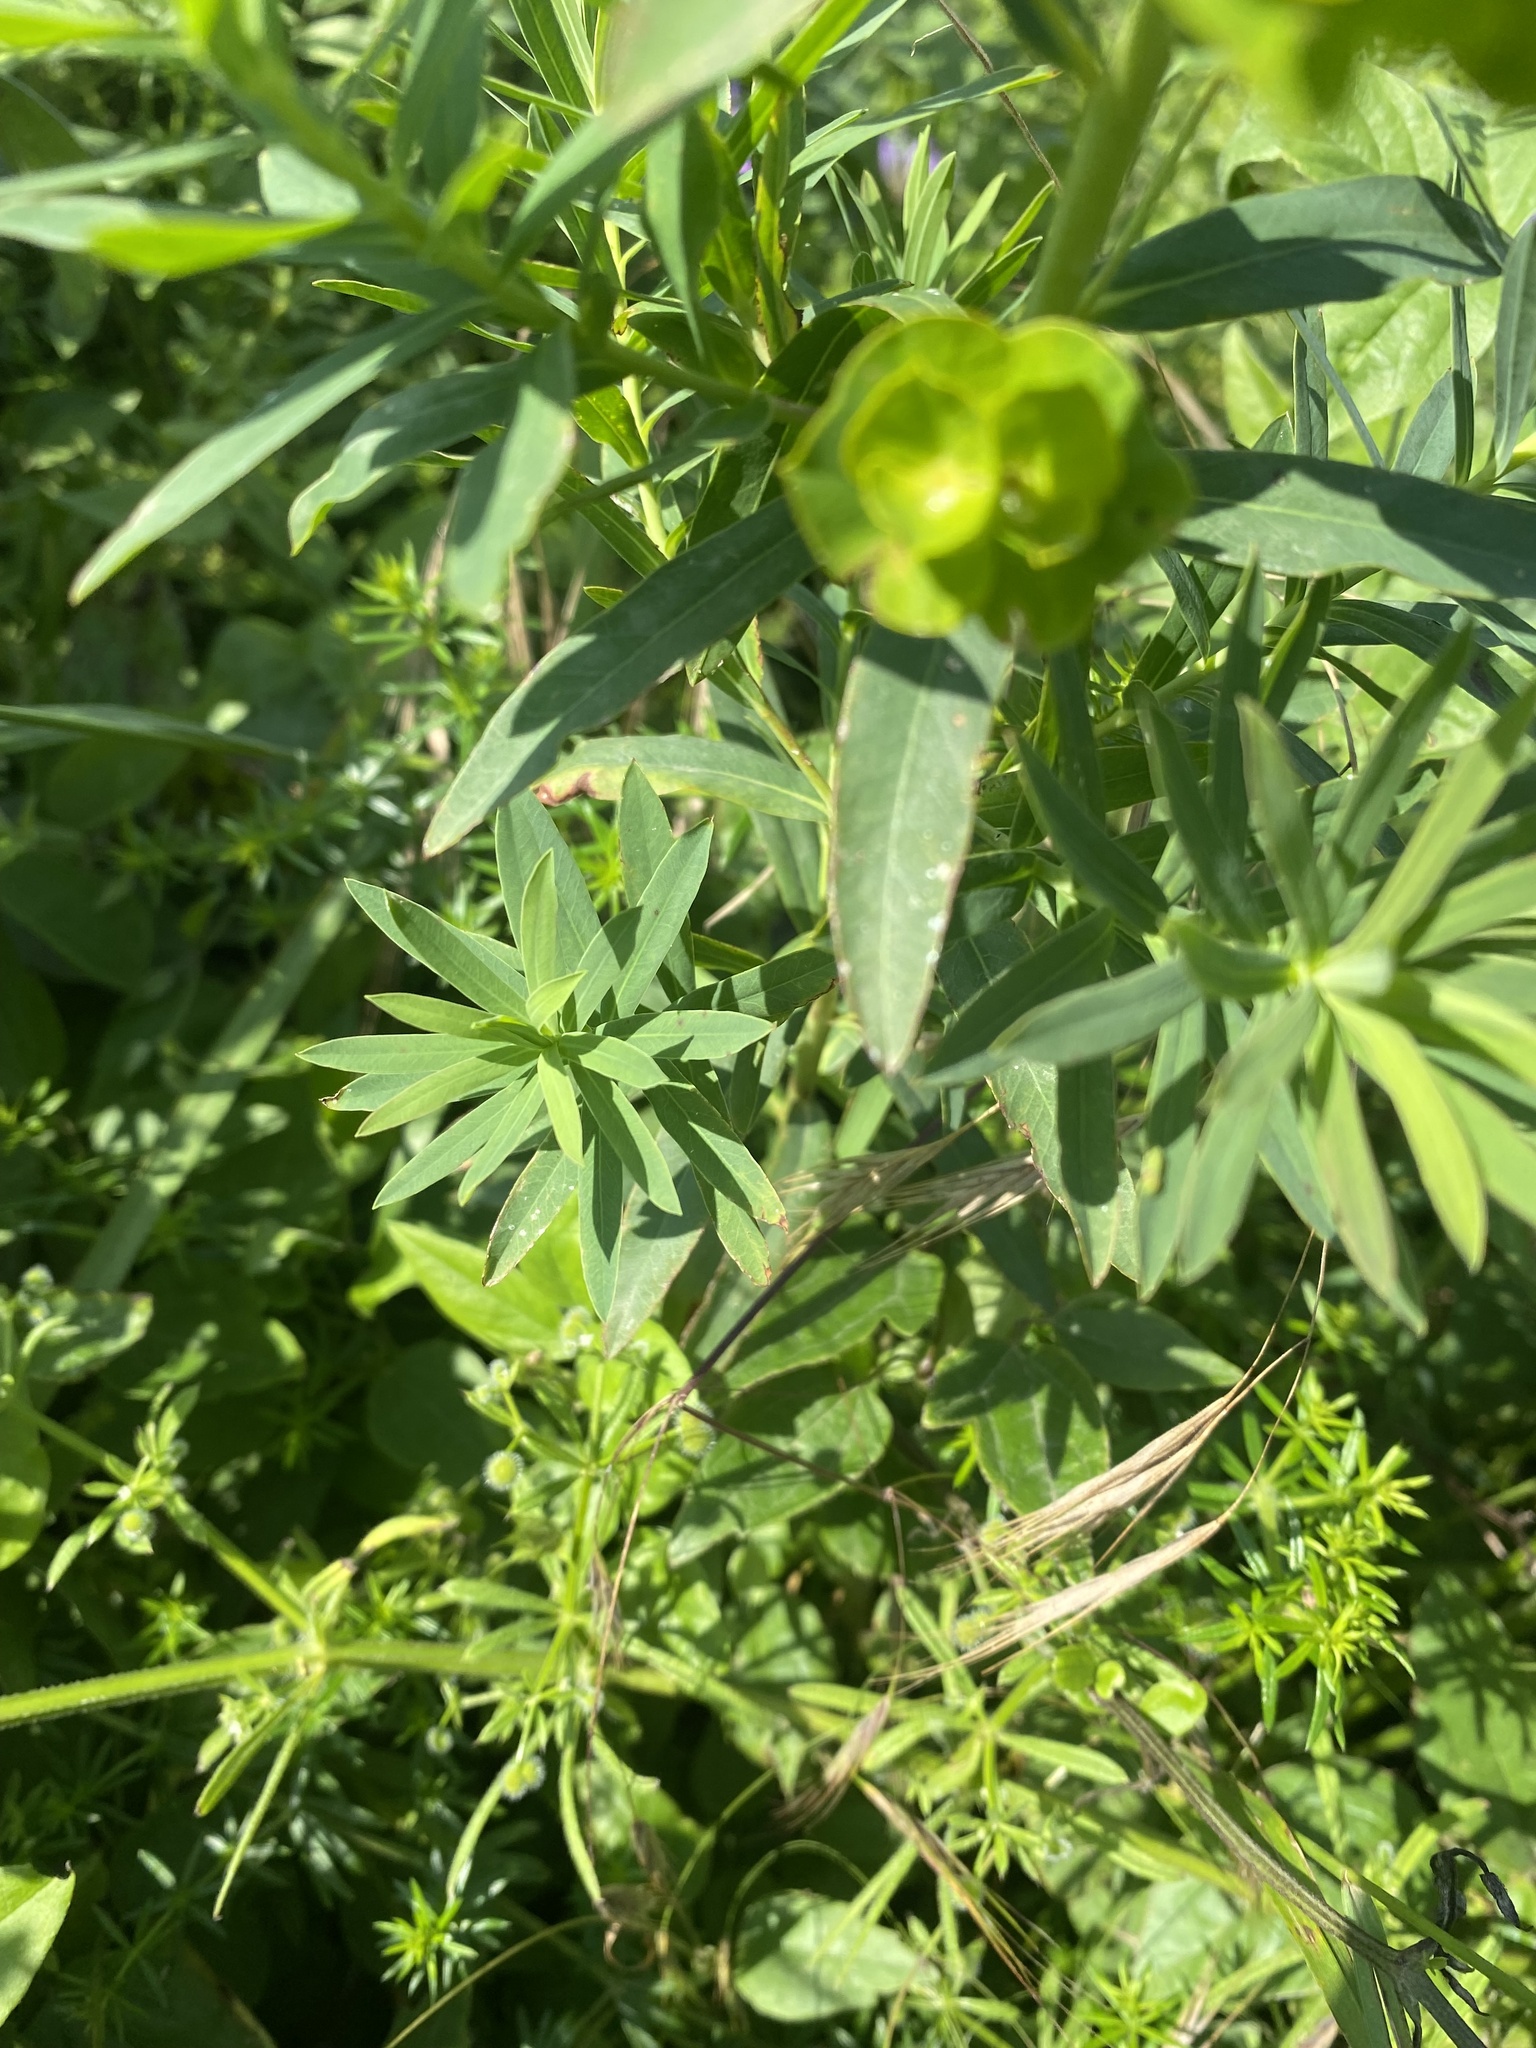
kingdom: Plantae
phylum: Tracheophyta
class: Magnoliopsida
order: Malpighiales
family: Euphorbiaceae
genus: Euphorbia
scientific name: Euphorbia virgata
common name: Leafy spurge
